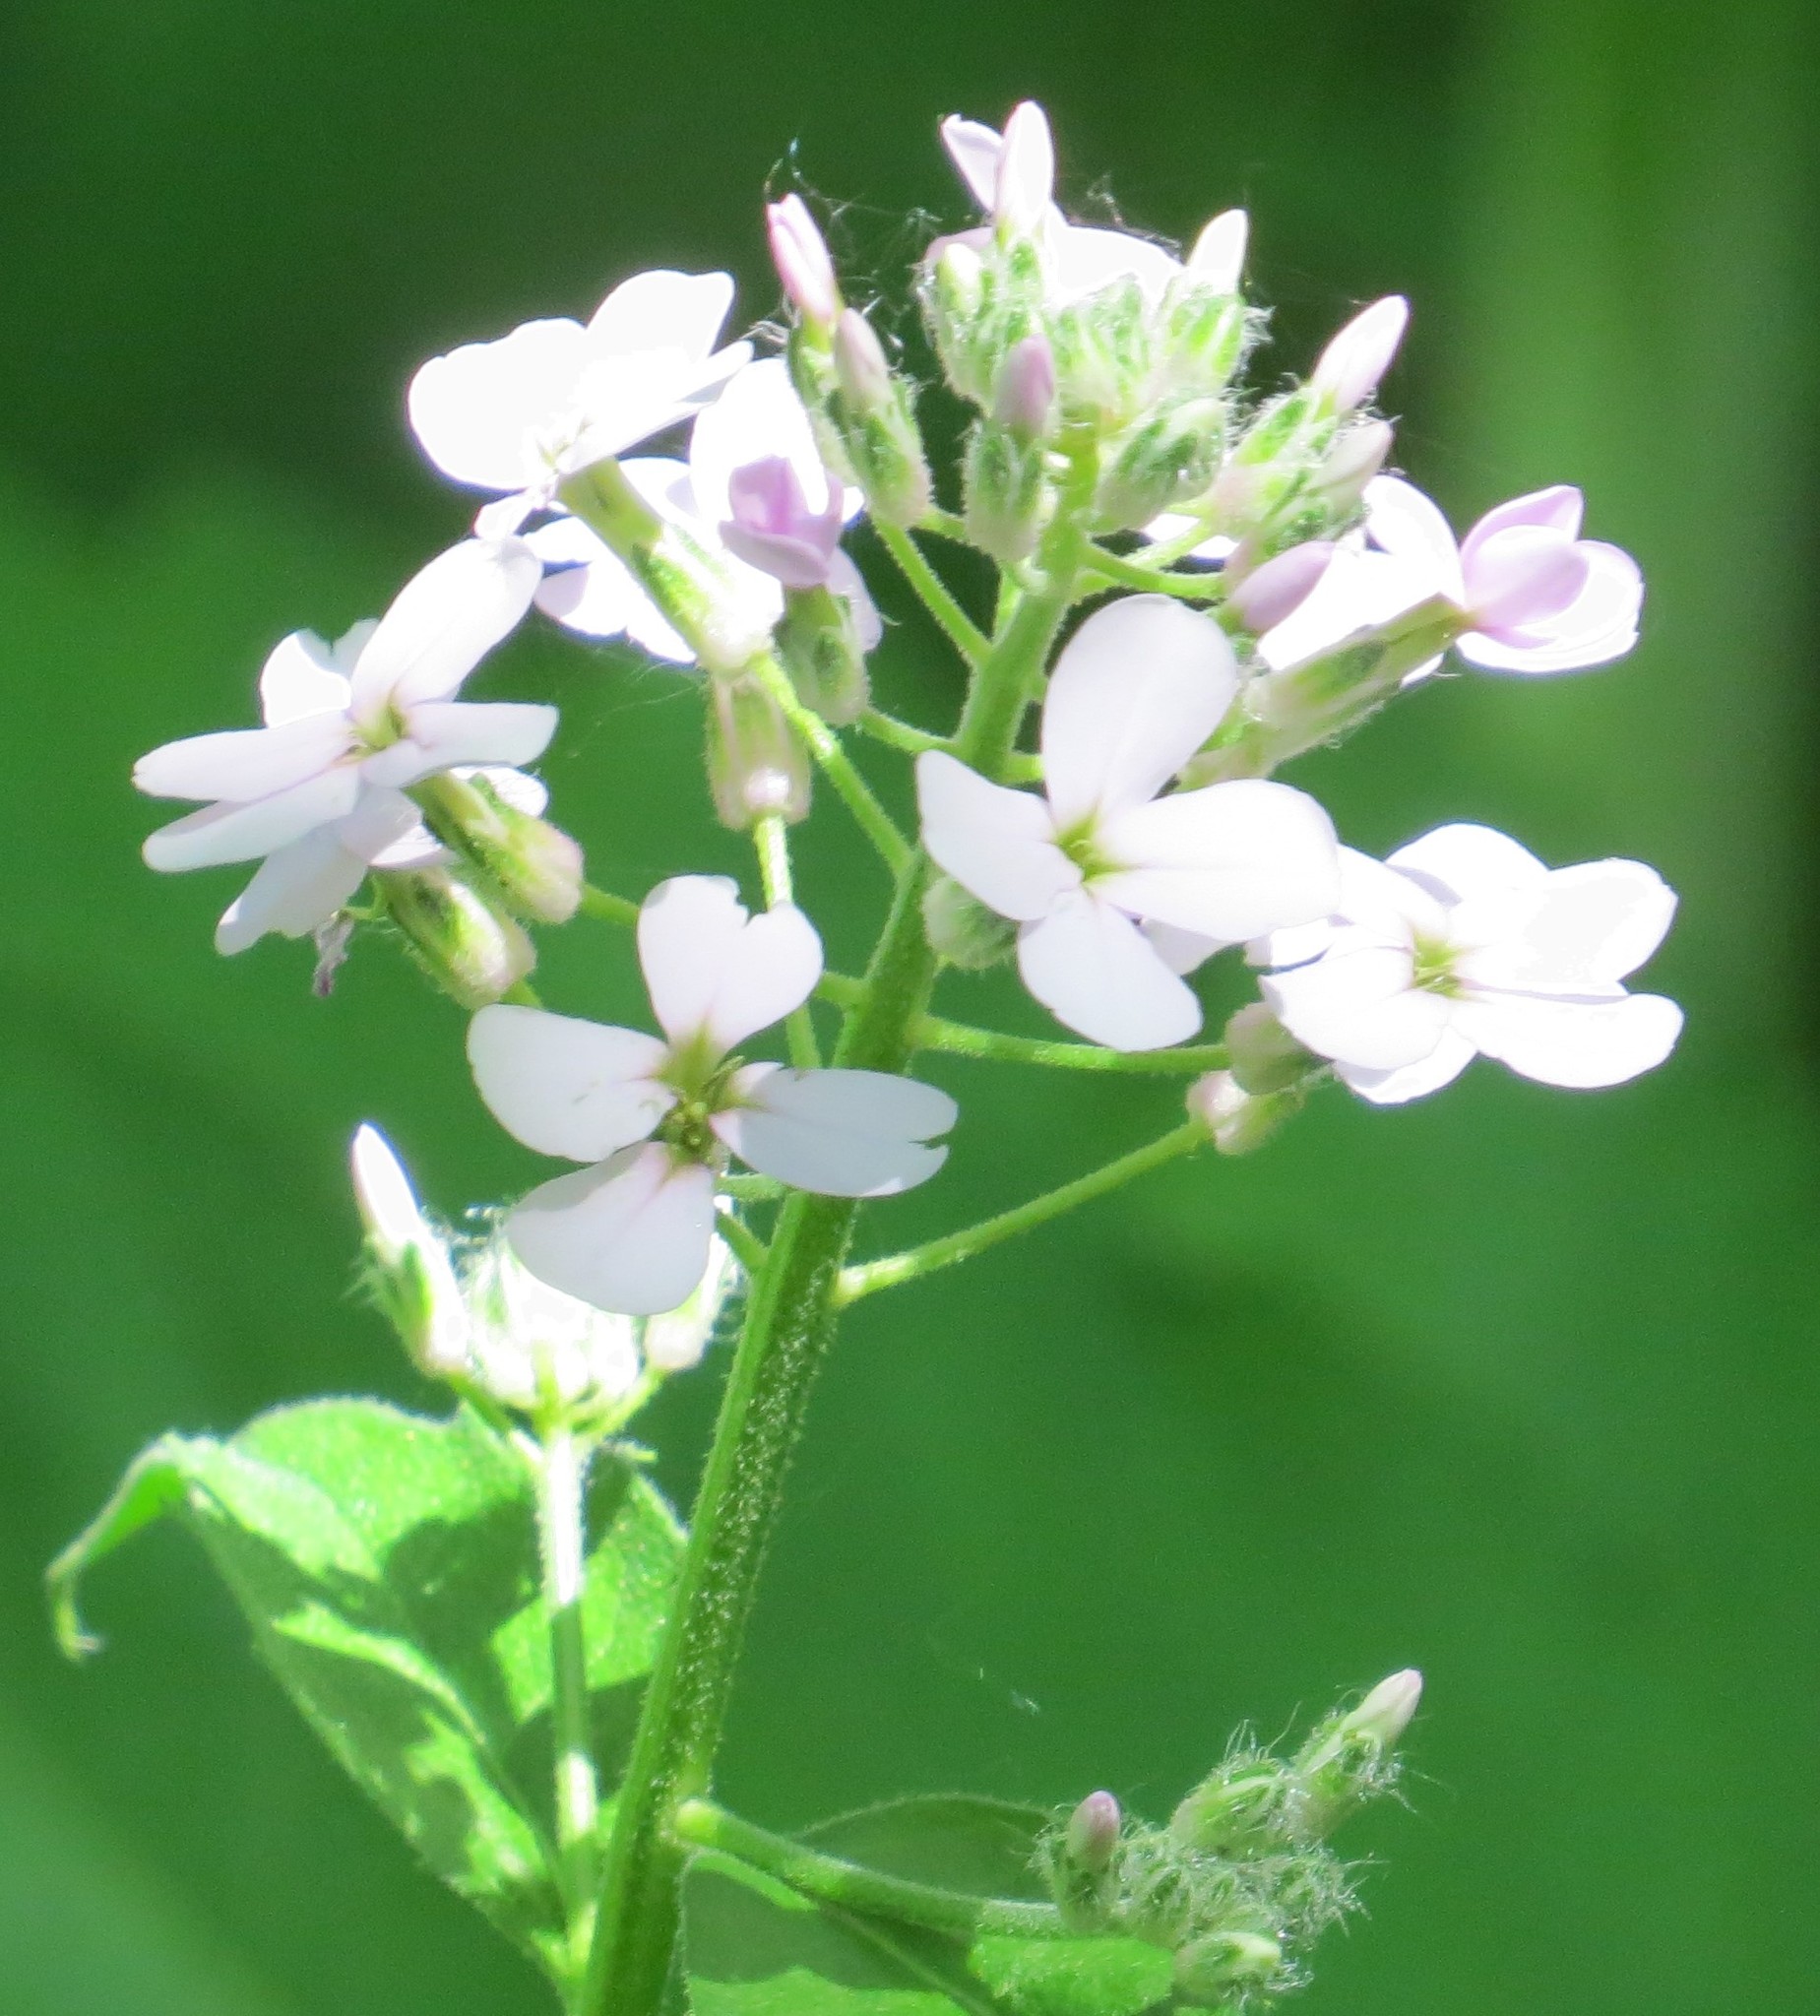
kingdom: Plantae
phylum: Tracheophyta
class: Magnoliopsida
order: Brassicales
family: Brassicaceae
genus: Hesperis
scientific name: Hesperis matronalis
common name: Dame's-violet
